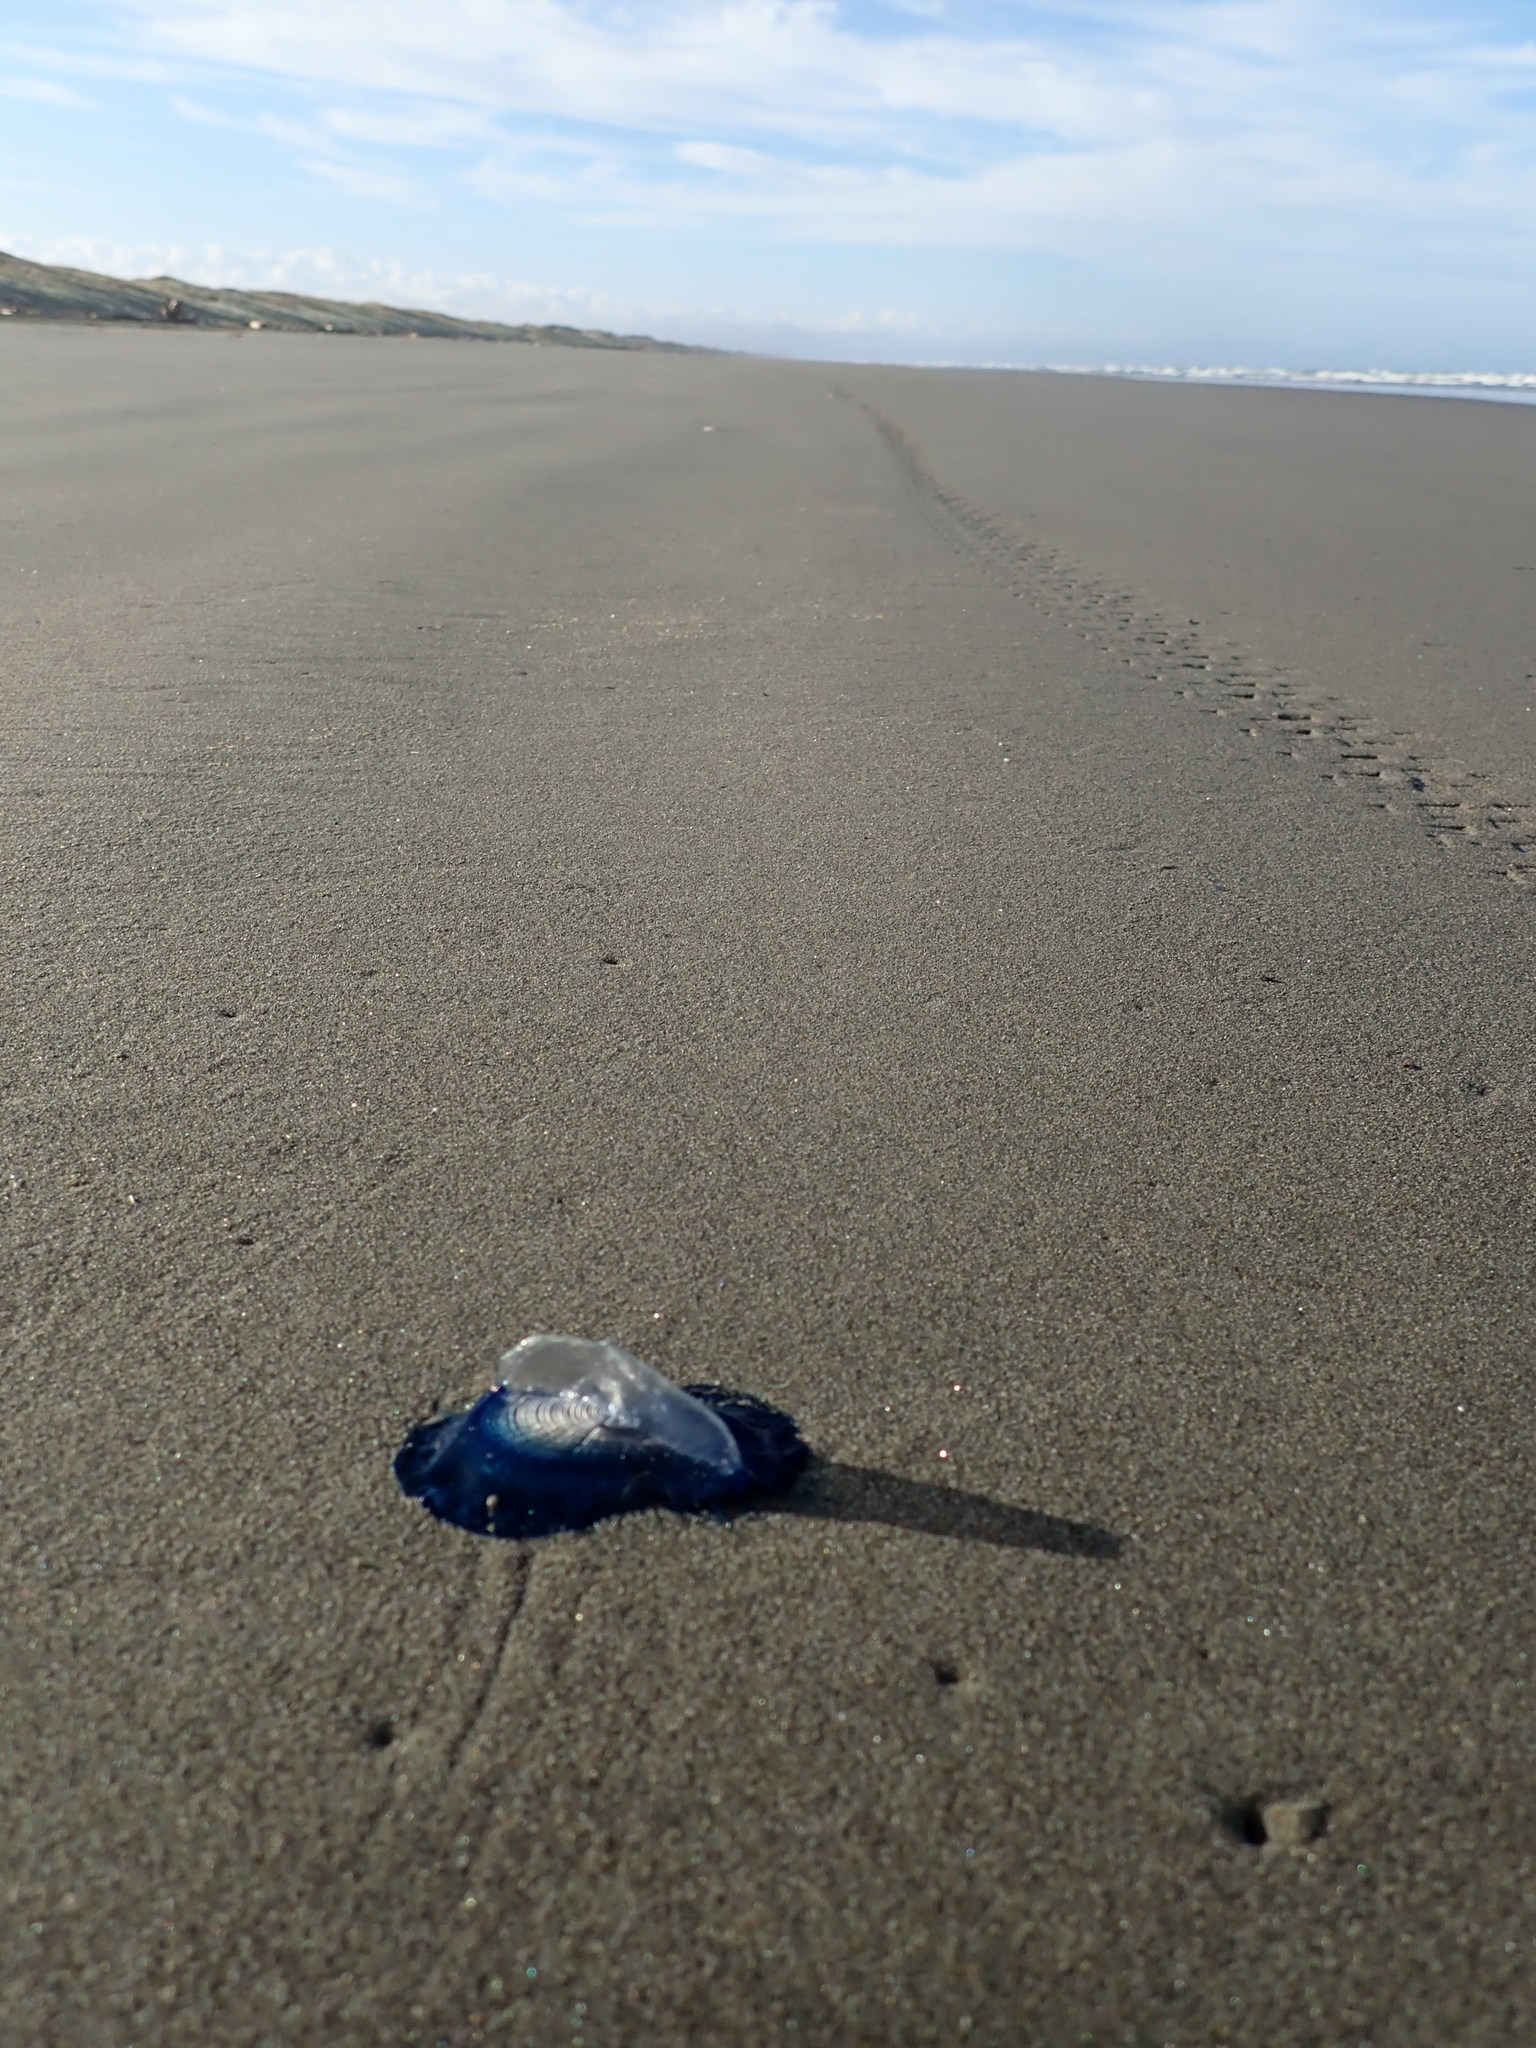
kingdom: Animalia
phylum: Cnidaria
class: Hydrozoa
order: Anthoathecata
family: Porpitidae
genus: Velella
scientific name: Velella velella
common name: By-the-wind-sailor
